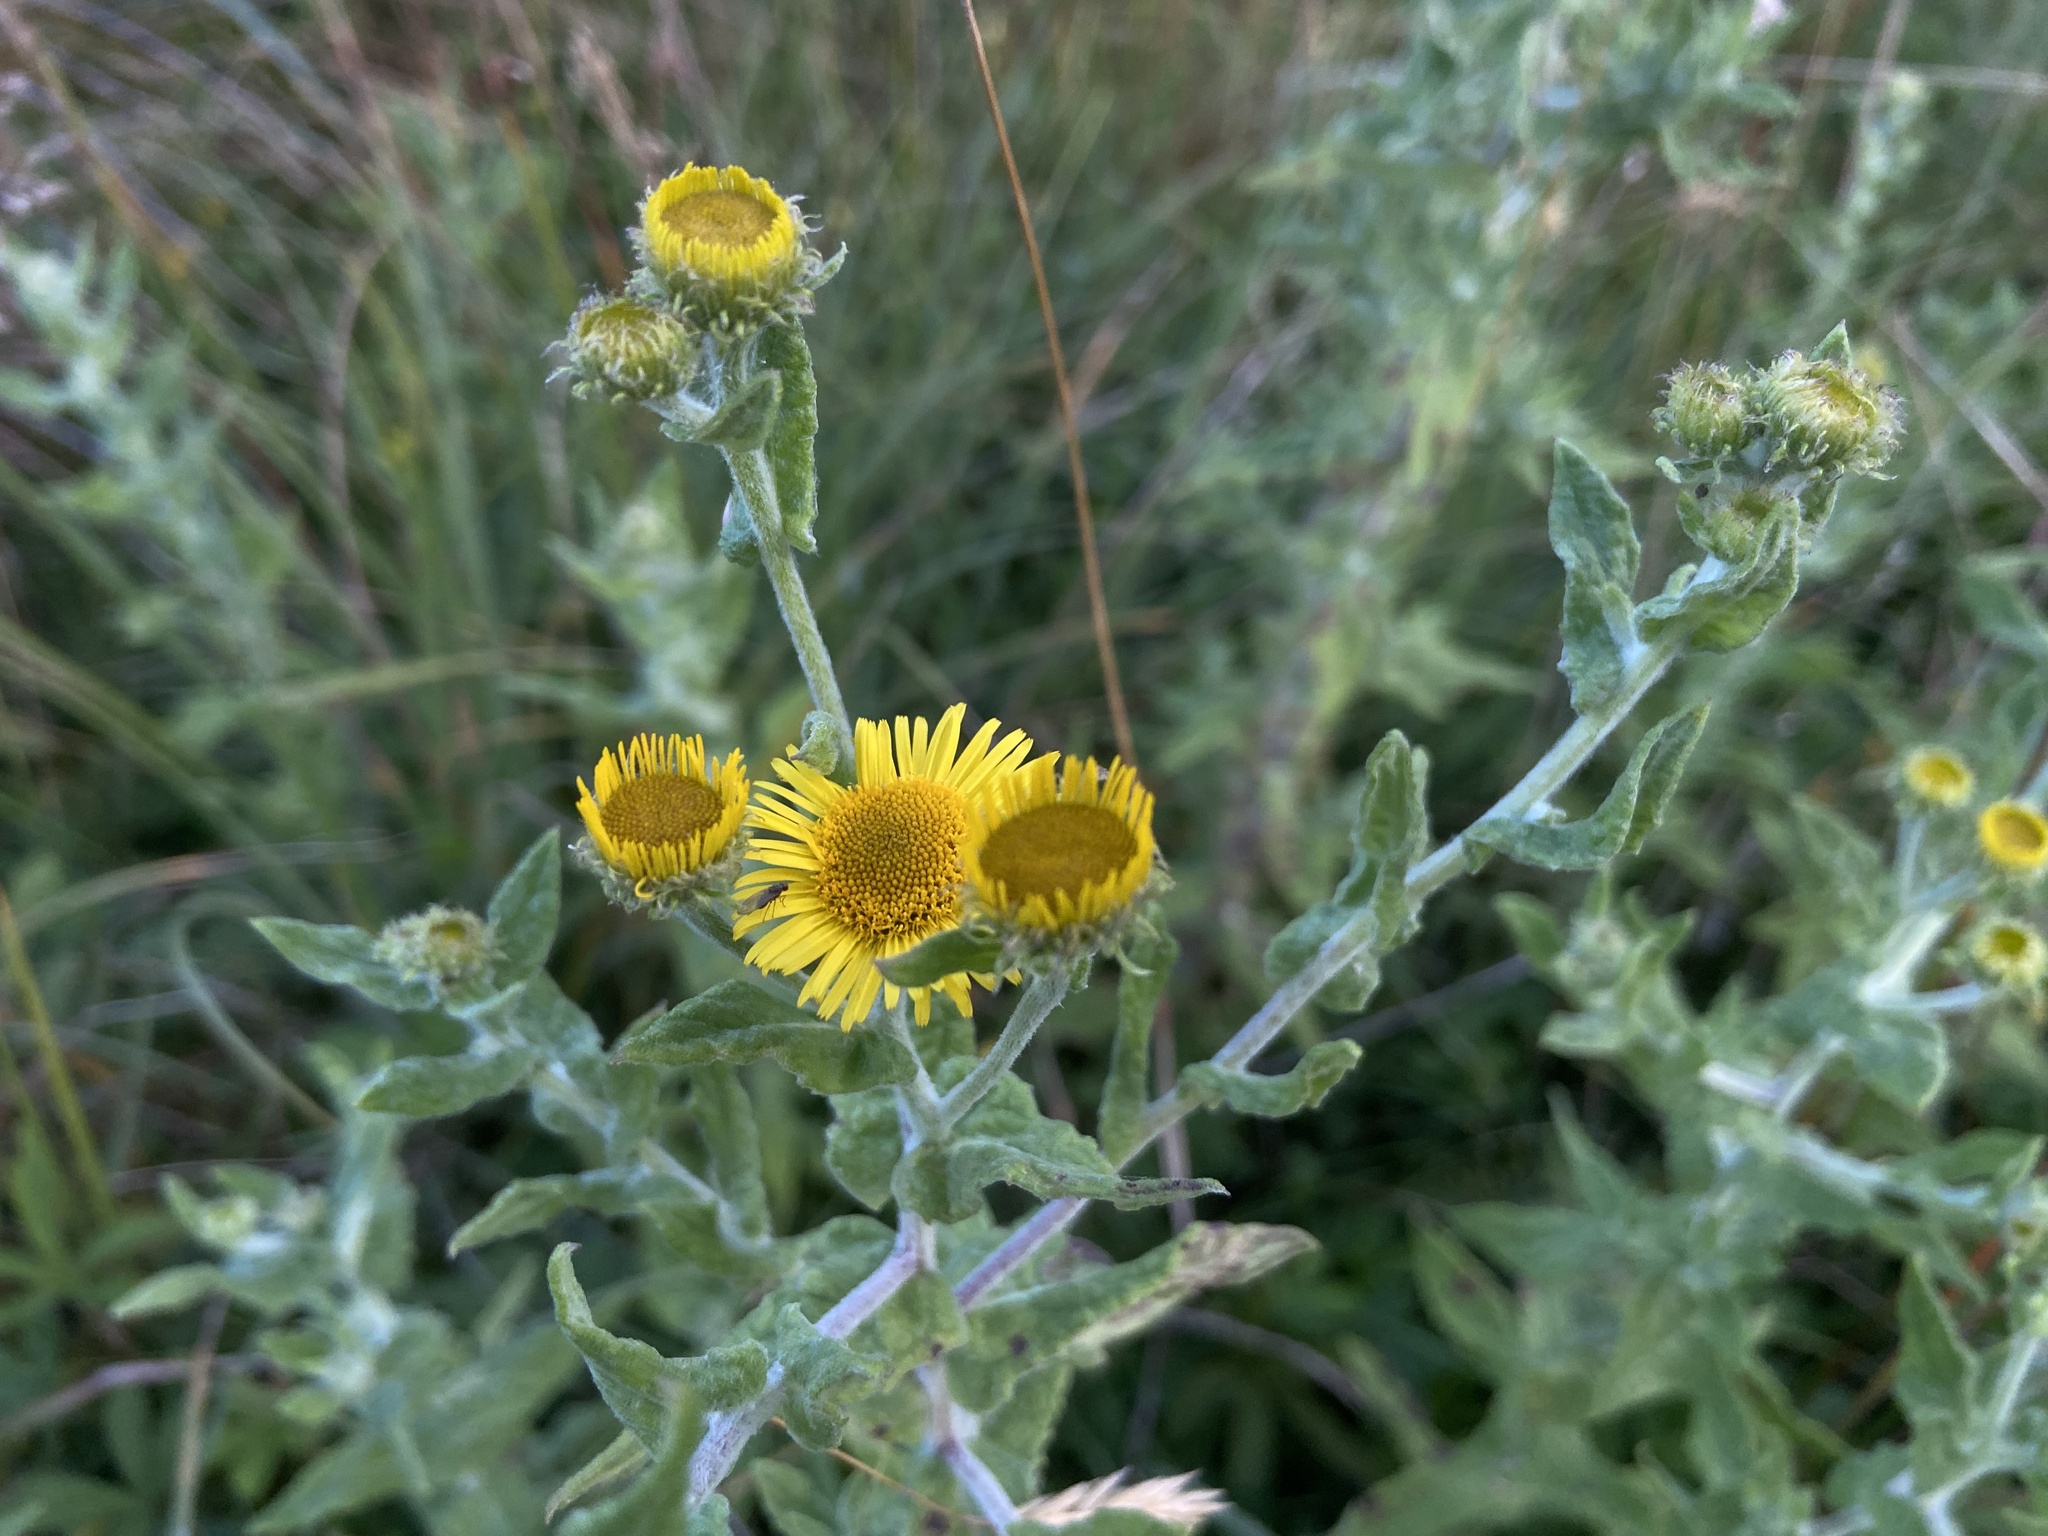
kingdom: Plantae
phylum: Tracheophyta
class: Magnoliopsida
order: Asterales
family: Asteraceae
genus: Pulicaria
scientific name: Pulicaria dysenterica
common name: Common fleabane
